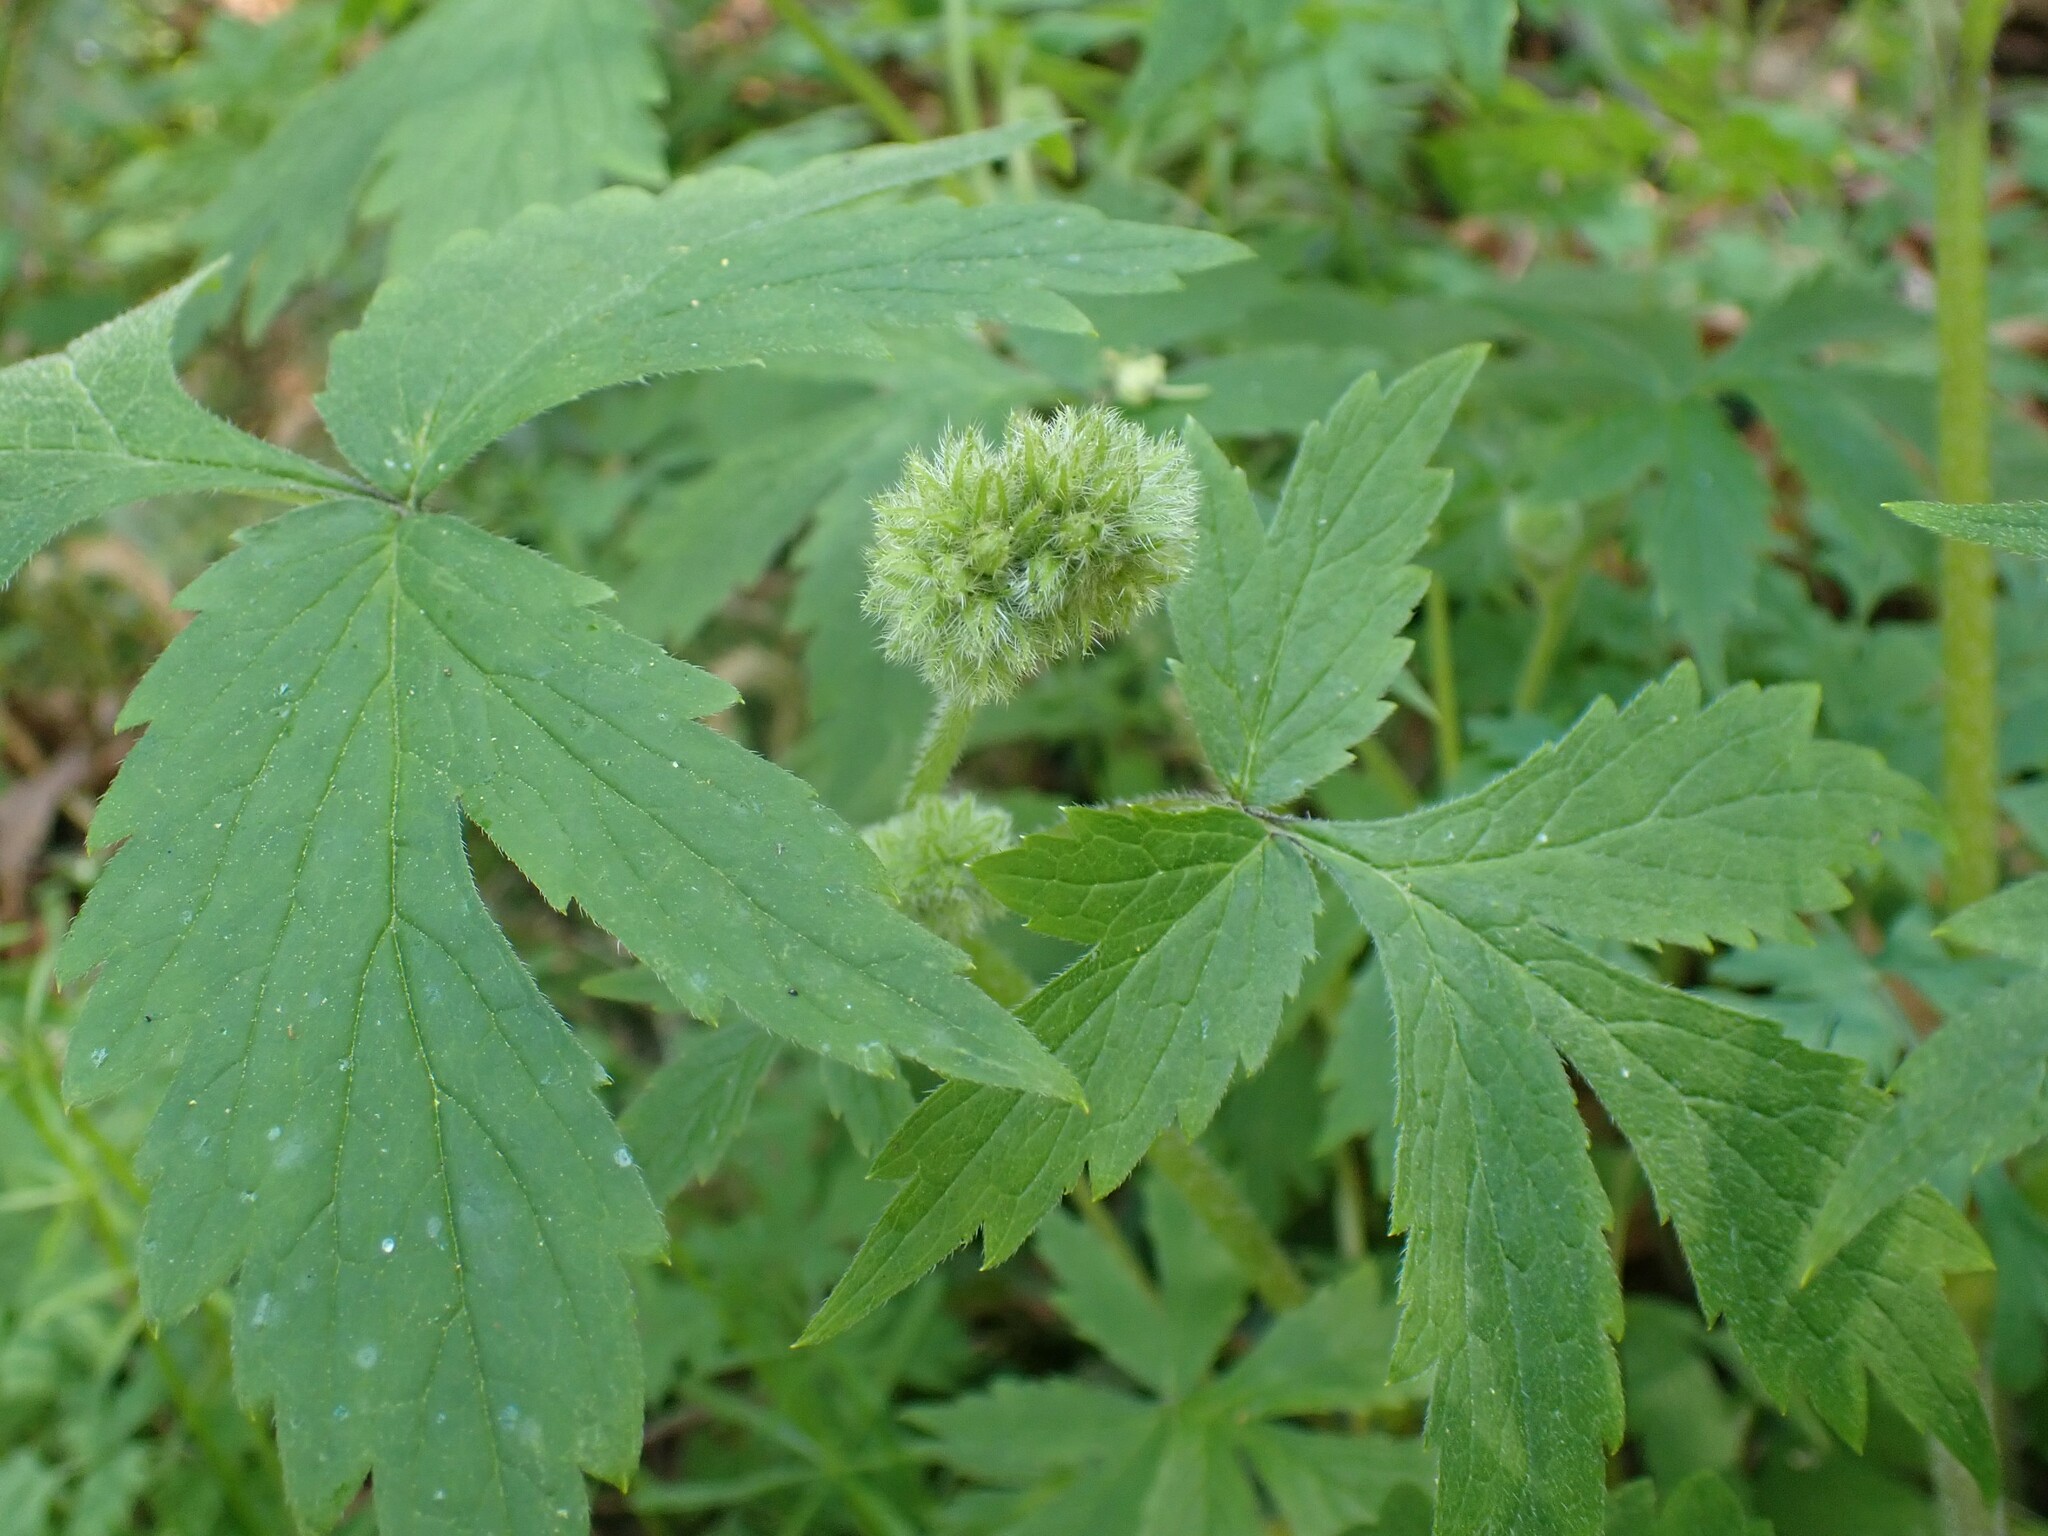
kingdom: Plantae
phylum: Tracheophyta
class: Magnoliopsida
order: Boraginales
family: Hydrophyllaceae
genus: Hydrophyllum
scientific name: Hydrophyllum tenuipes
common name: Pacific waterleaf
